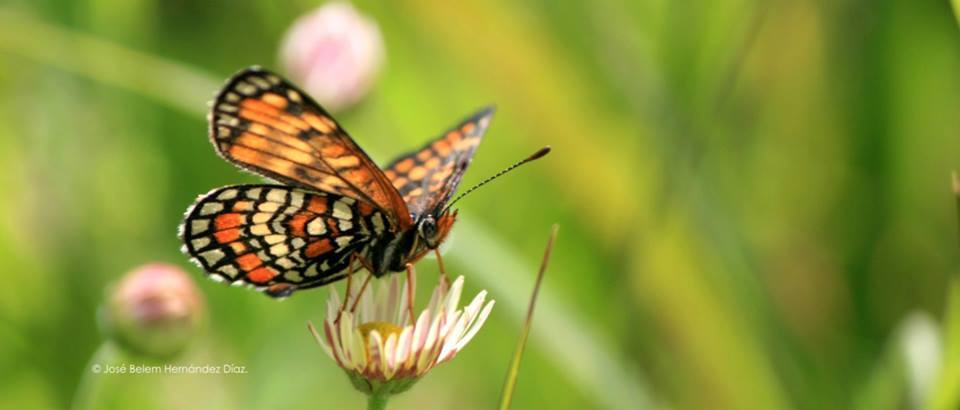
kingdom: Animalia
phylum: Arthropoda
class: Insecta
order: Lepidoptera
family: Nymphalidae
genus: Chlosyne
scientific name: Chlosyne definita
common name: Definite patch
